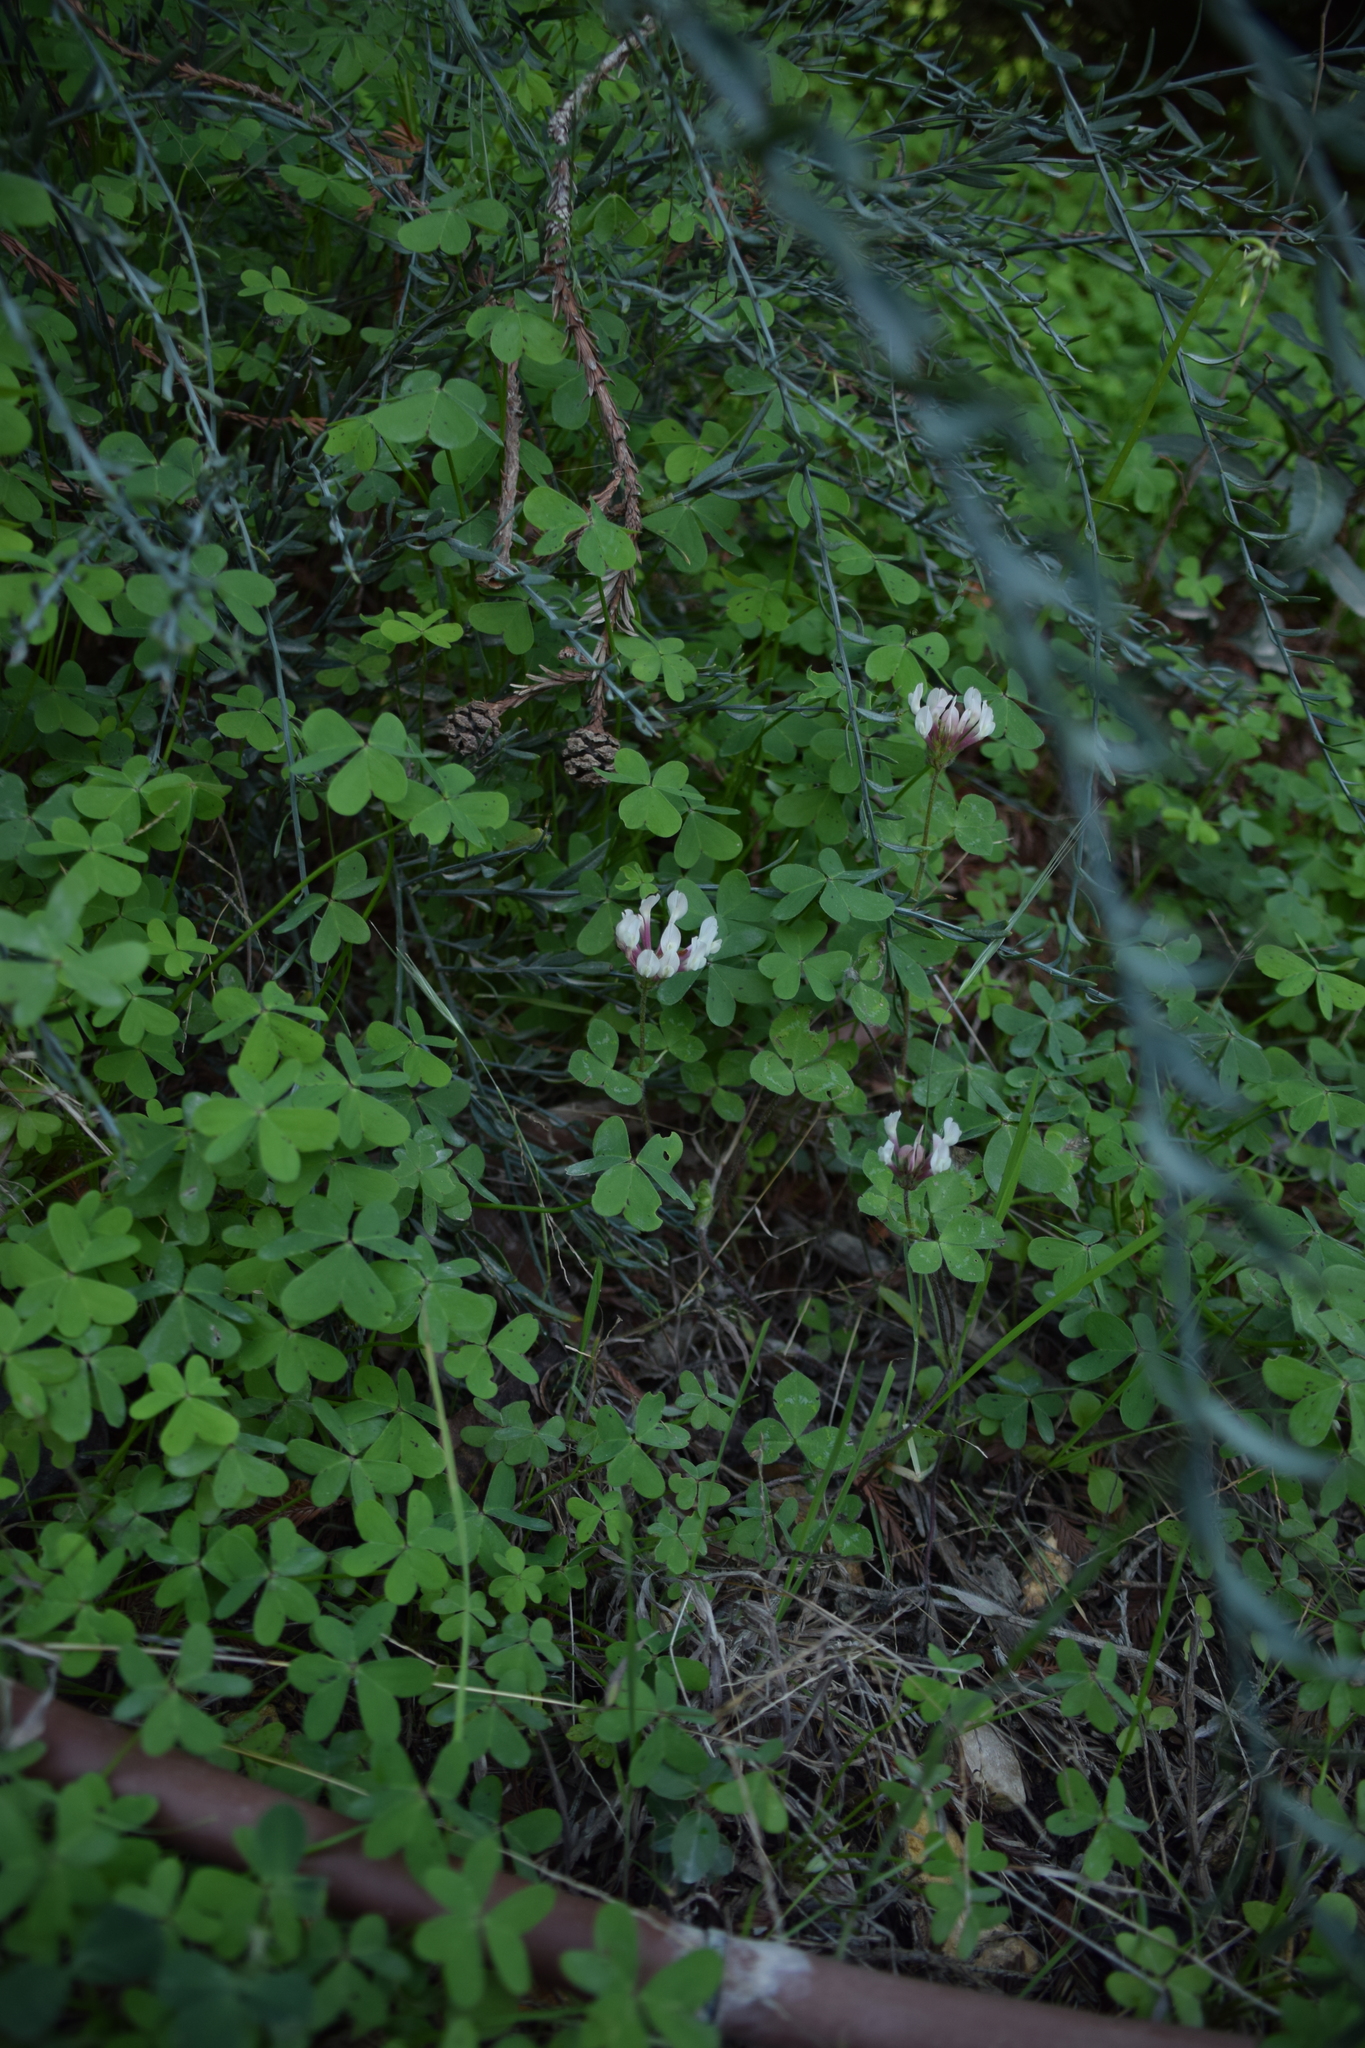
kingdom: Plantae
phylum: Tracheophyta
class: Magnoliopsida
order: Fabales
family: Fabaceae
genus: Trifolium
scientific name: Trifolium clypeatum
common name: Shield clover
